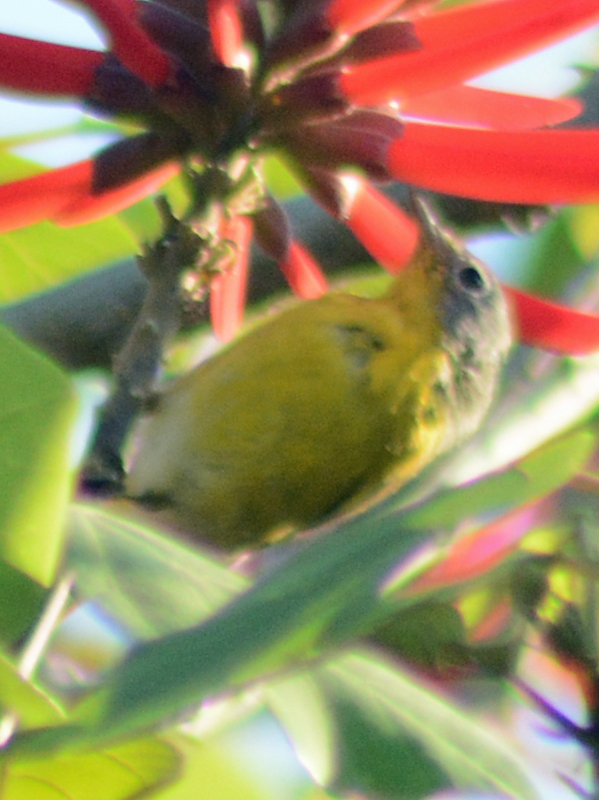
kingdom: Animalia
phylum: Chordata
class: Aves
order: Passeriformes
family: Parulidae
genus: Leiothlypis
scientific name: Leiothlypis ruficapilla
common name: Nashville warbler
